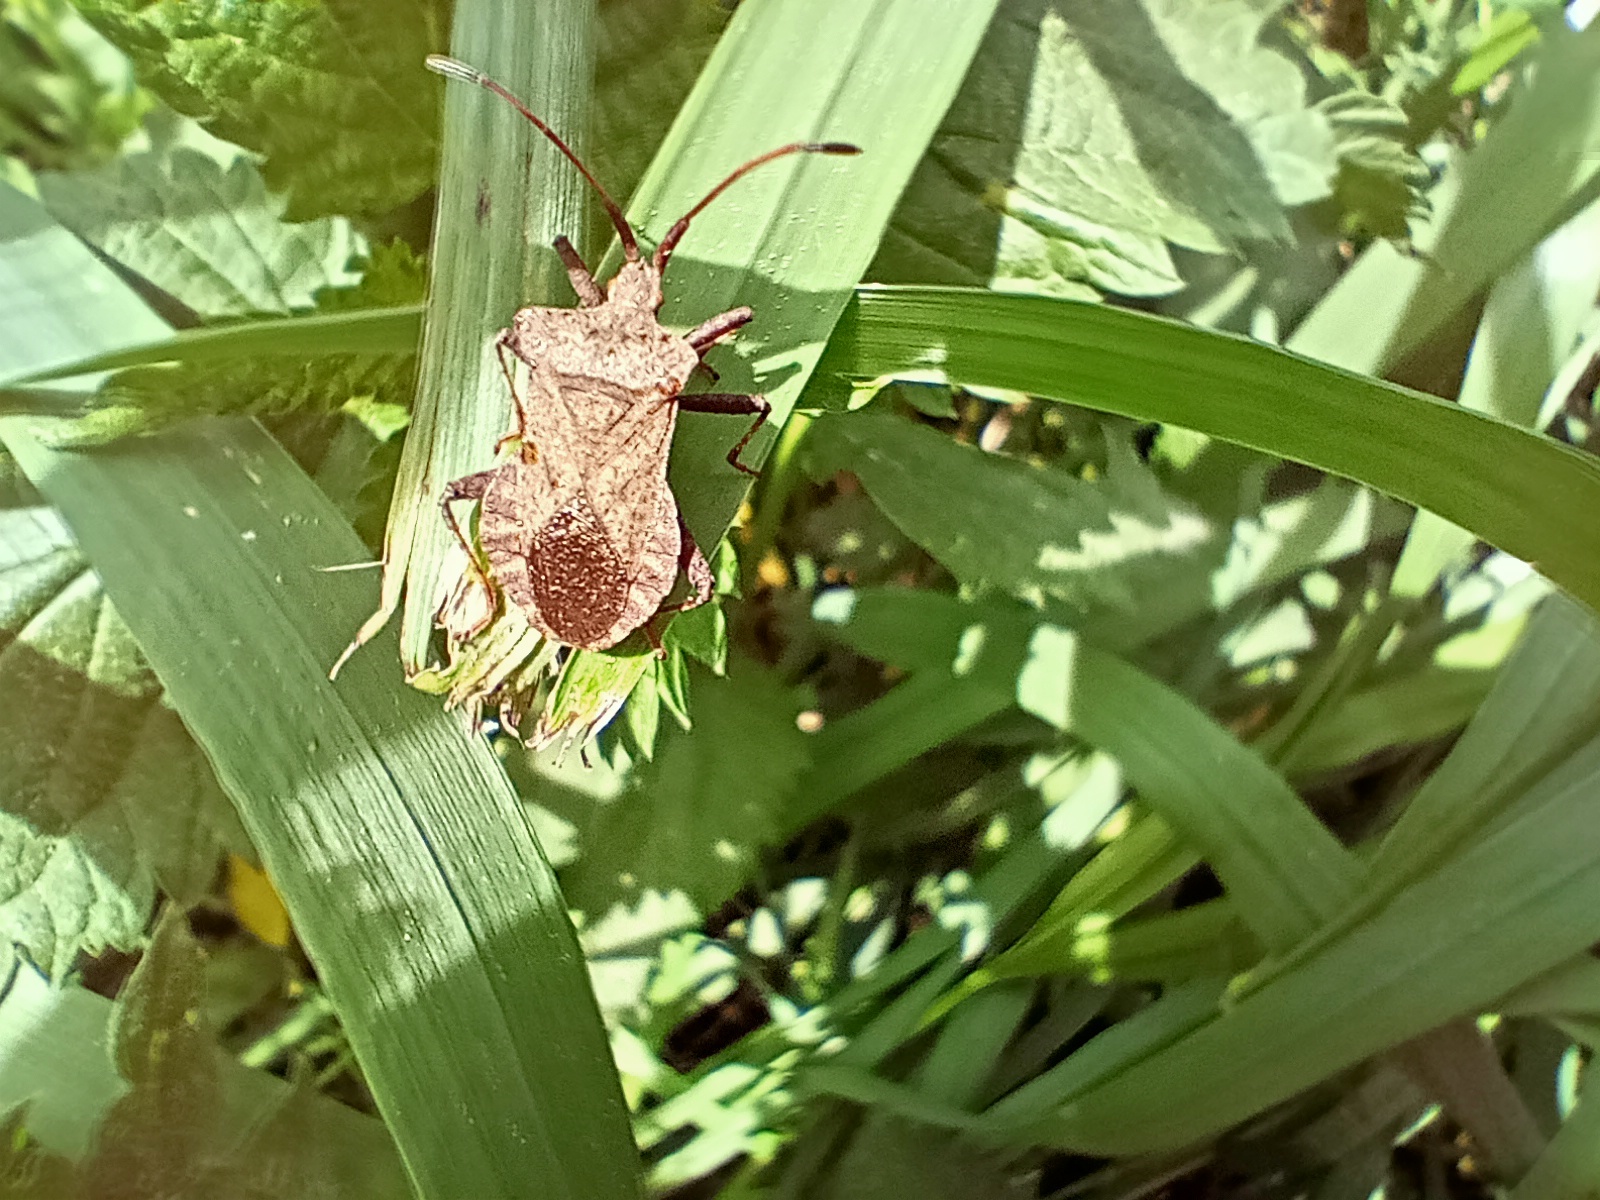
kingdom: Animalia
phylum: Arthropoda
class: Insecta
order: Hemiptera
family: Coreidae
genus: Coreus
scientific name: Coreus marginatus
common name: Dock bug
